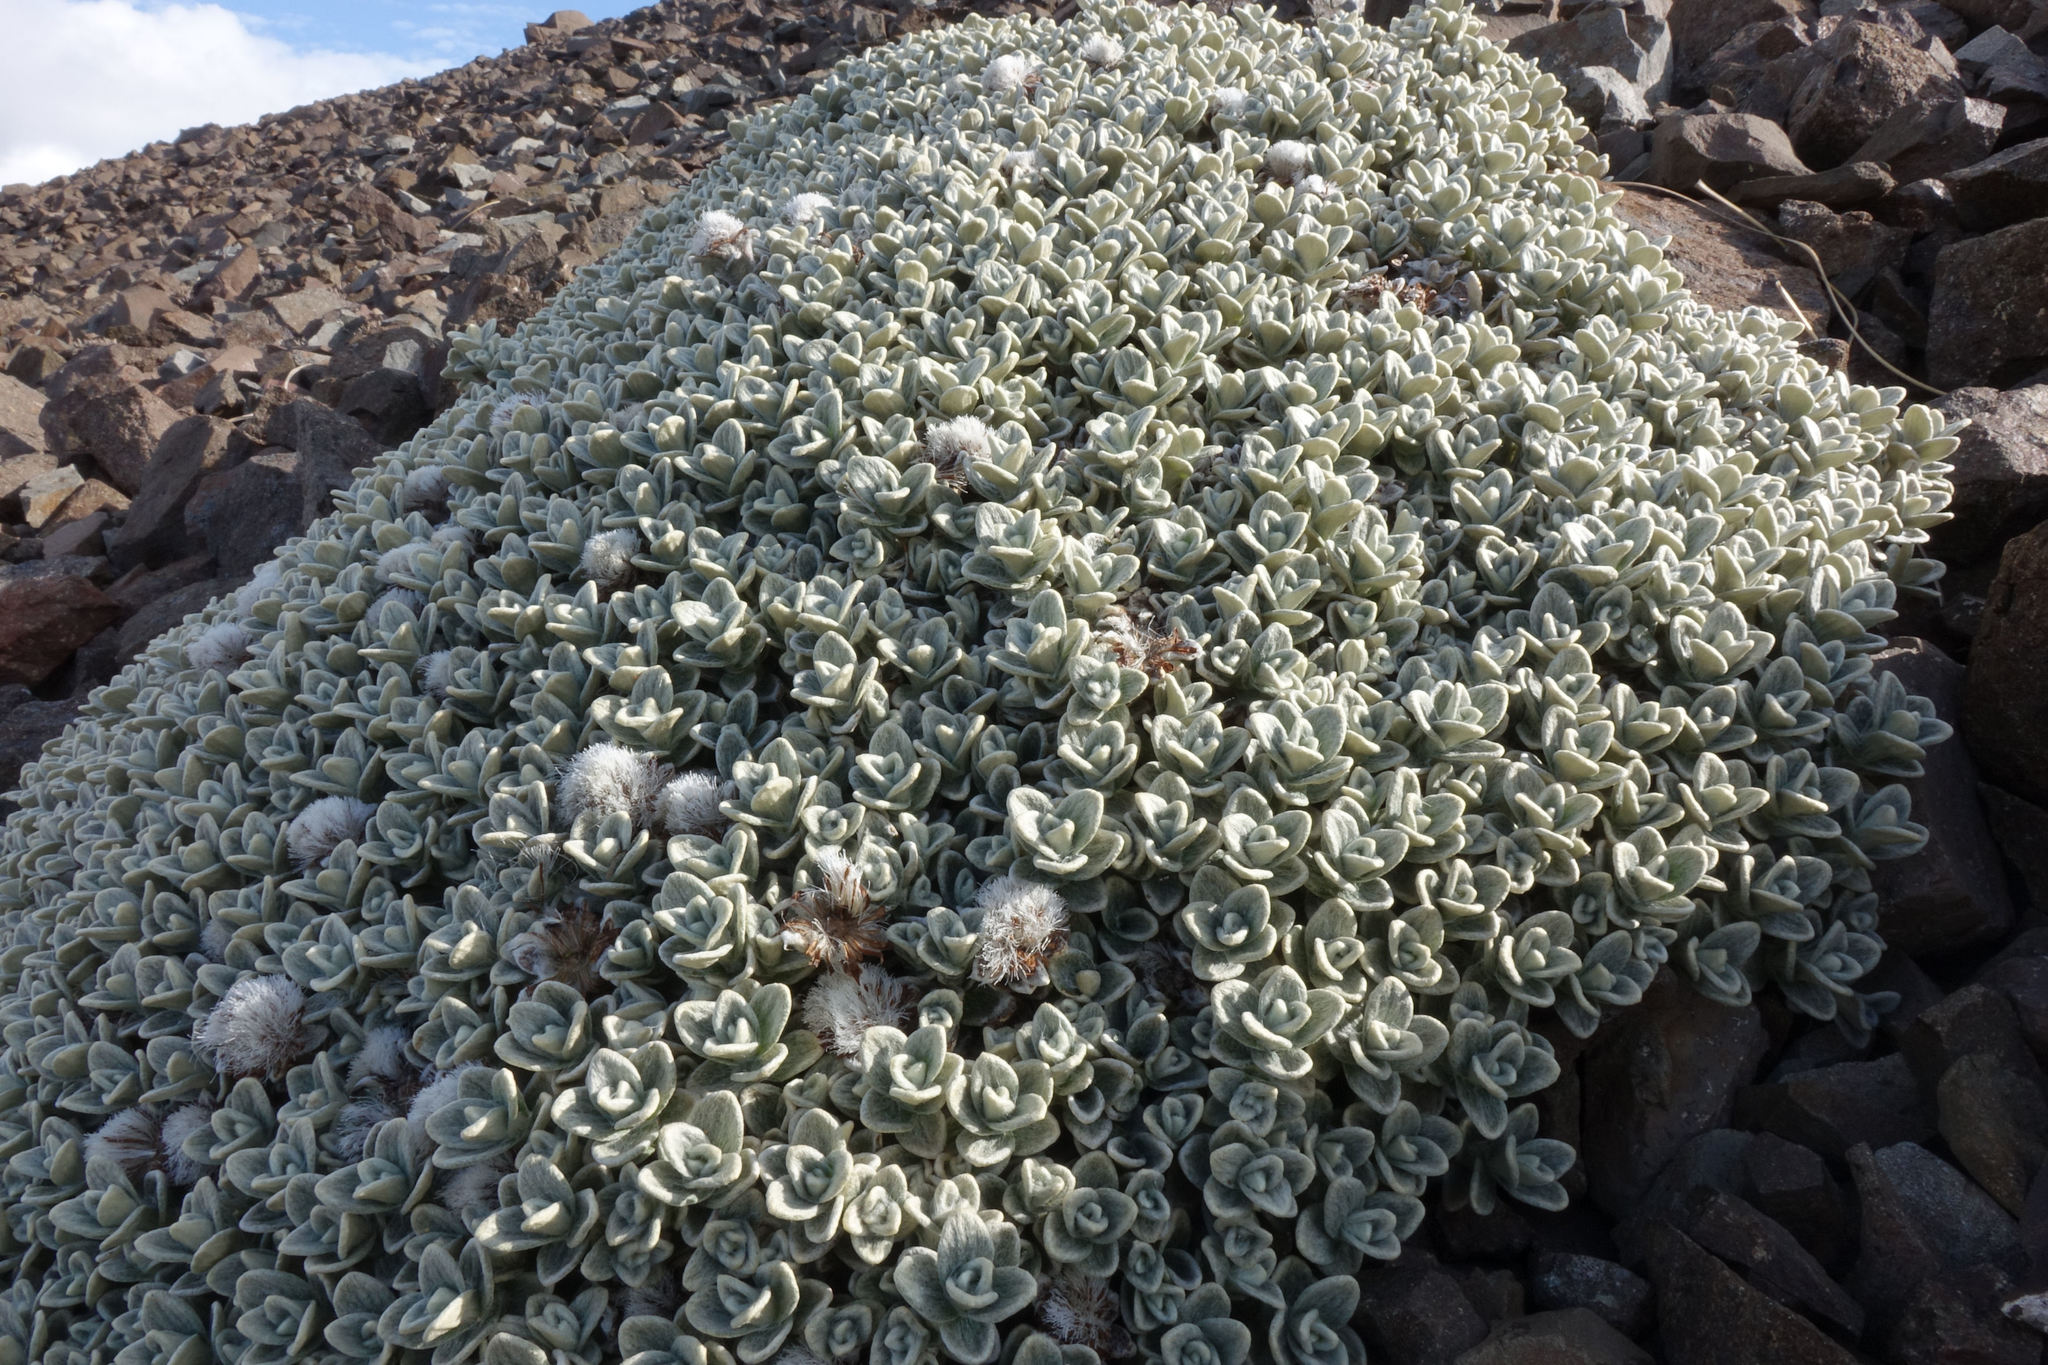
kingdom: Plantae
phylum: Tracheophyta
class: Magnoliopsida
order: Asterales
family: Asteraceae
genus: Haastia
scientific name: Haastia sinclairii
